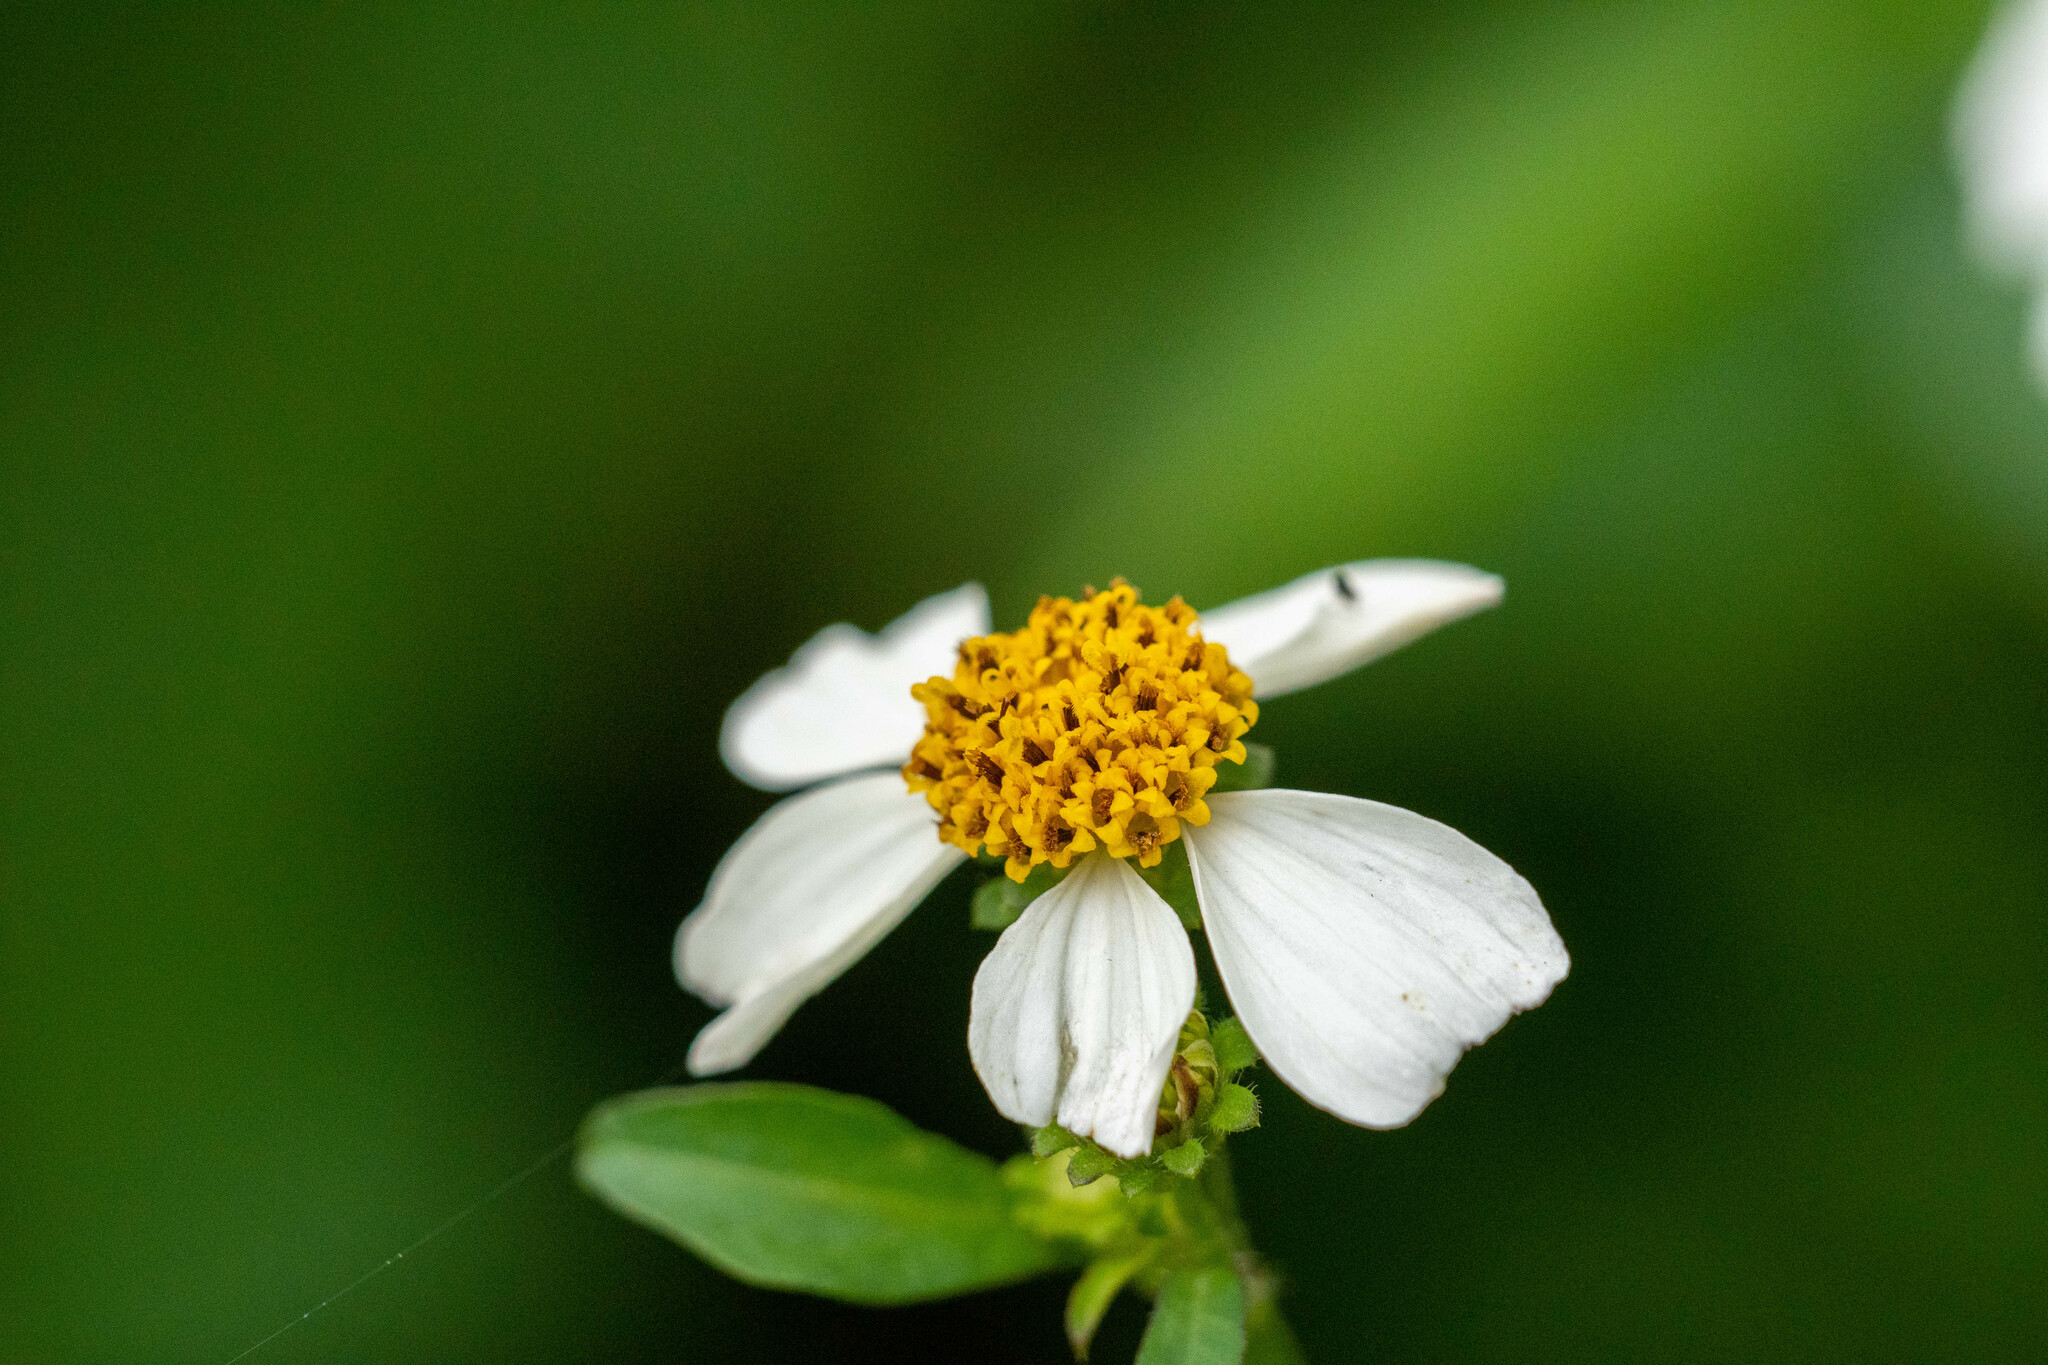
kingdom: Plantae
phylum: Tracheophyta
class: Magnoliopsida
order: Asterales
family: Asteraceae
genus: Bidens
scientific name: Bidens alba
